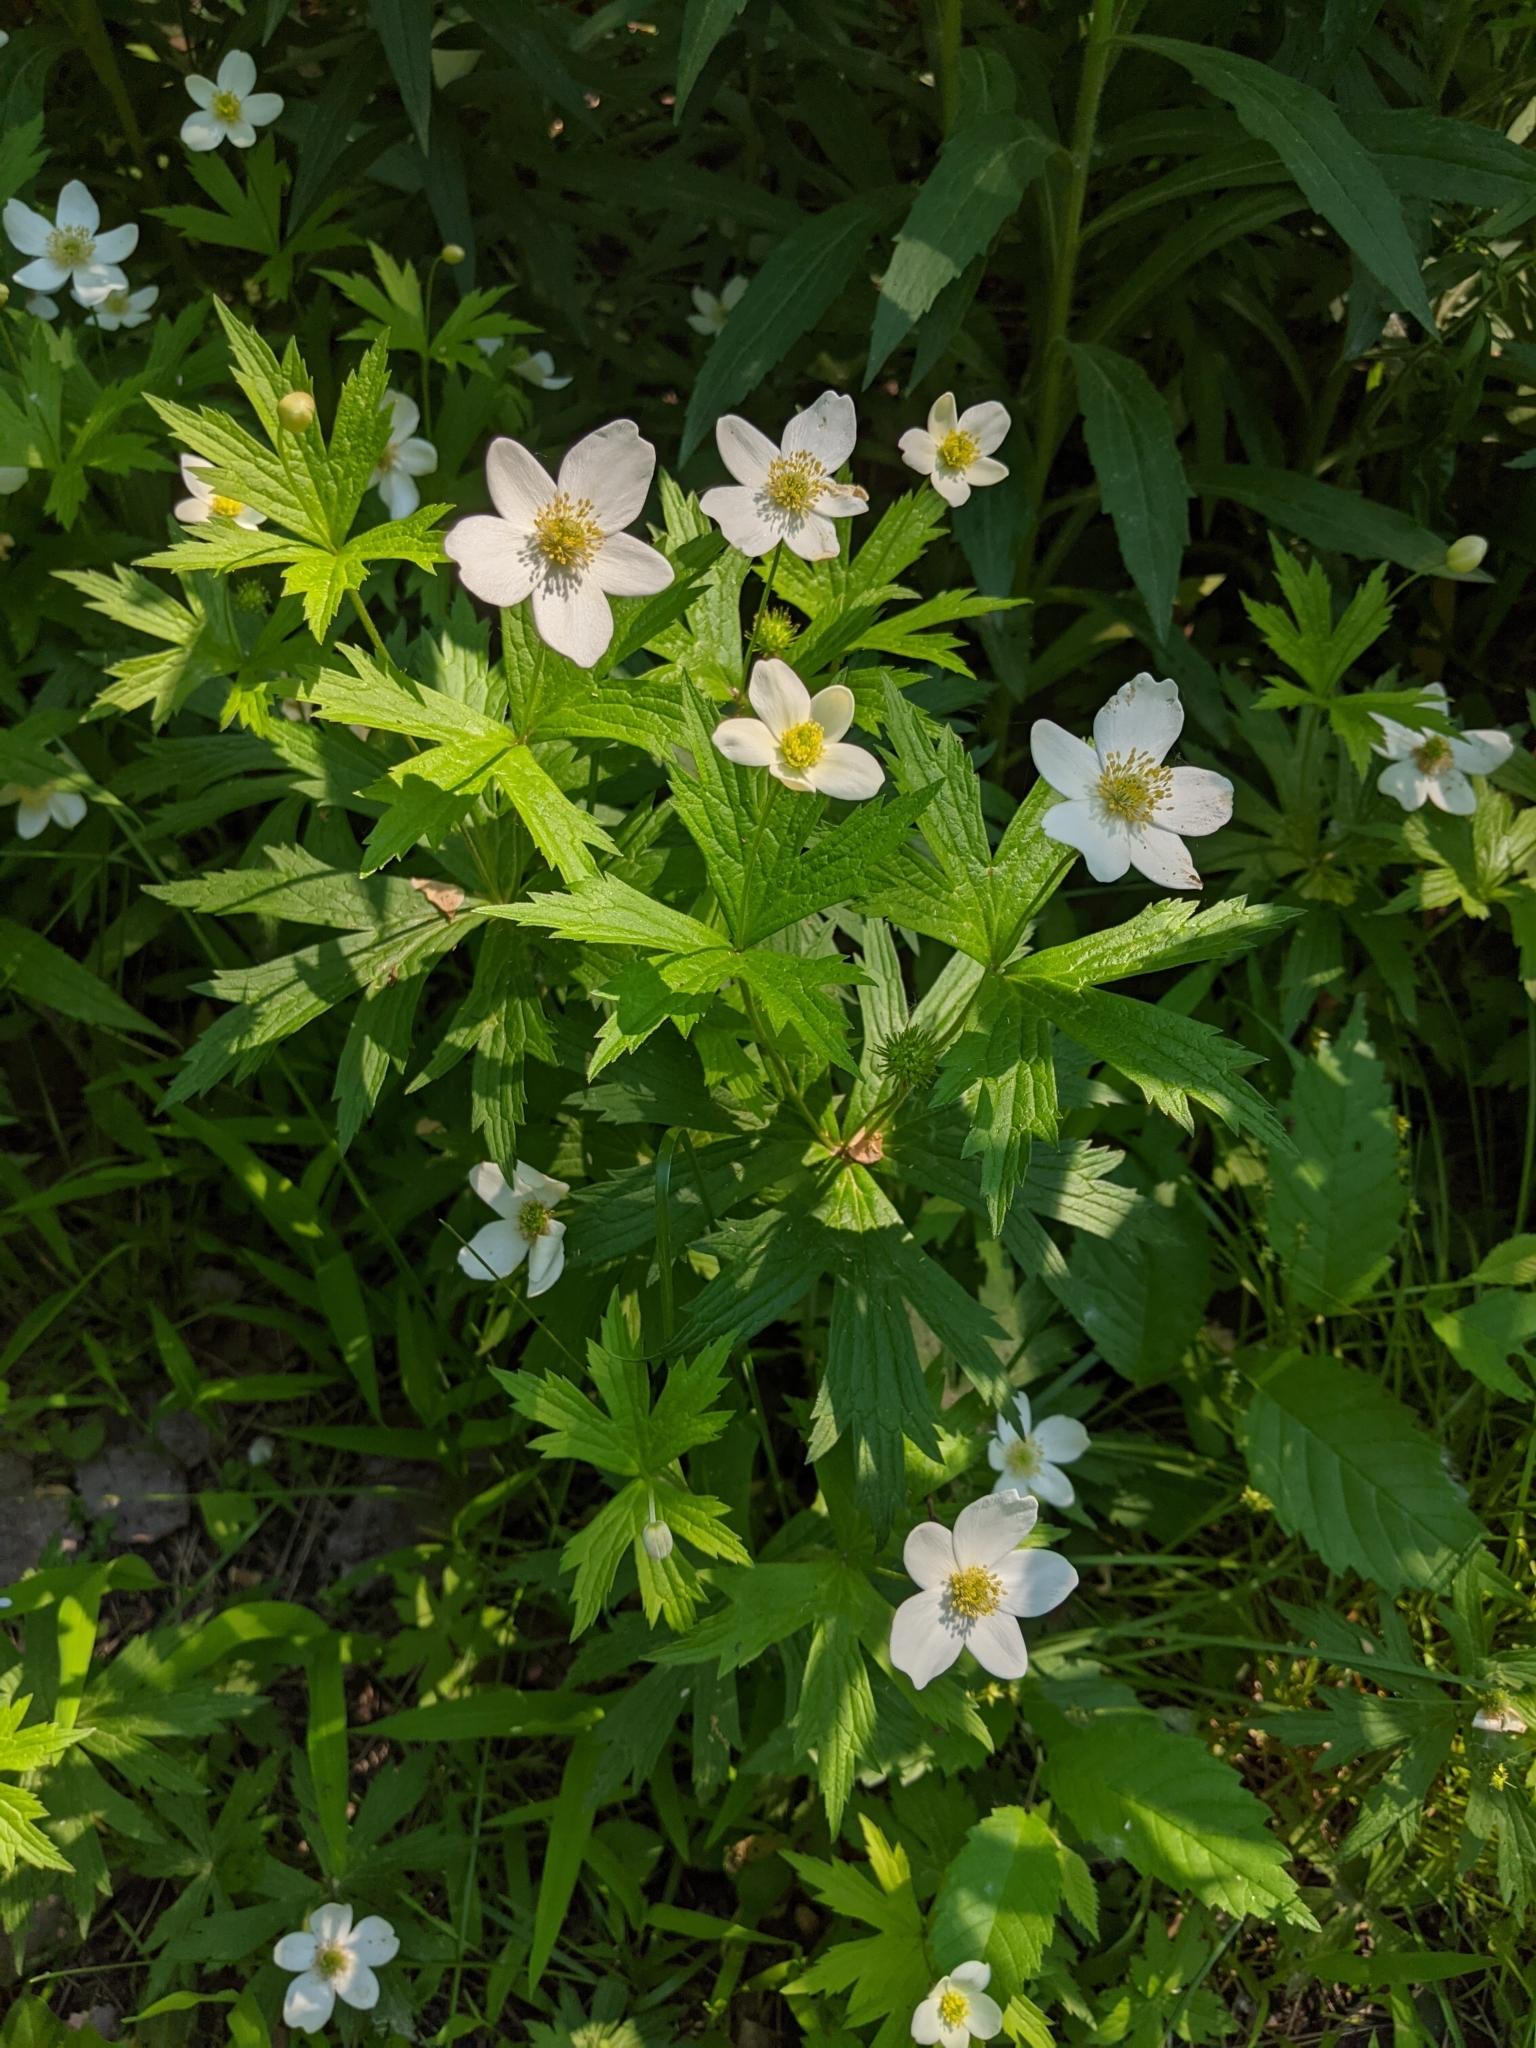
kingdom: Plantae
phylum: Tracheophyta
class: Magnoliopsida
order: Ranunculales
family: Ranunculaceae
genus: Anemonastrum
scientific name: Anemonastrum canadense
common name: Canada anemone
